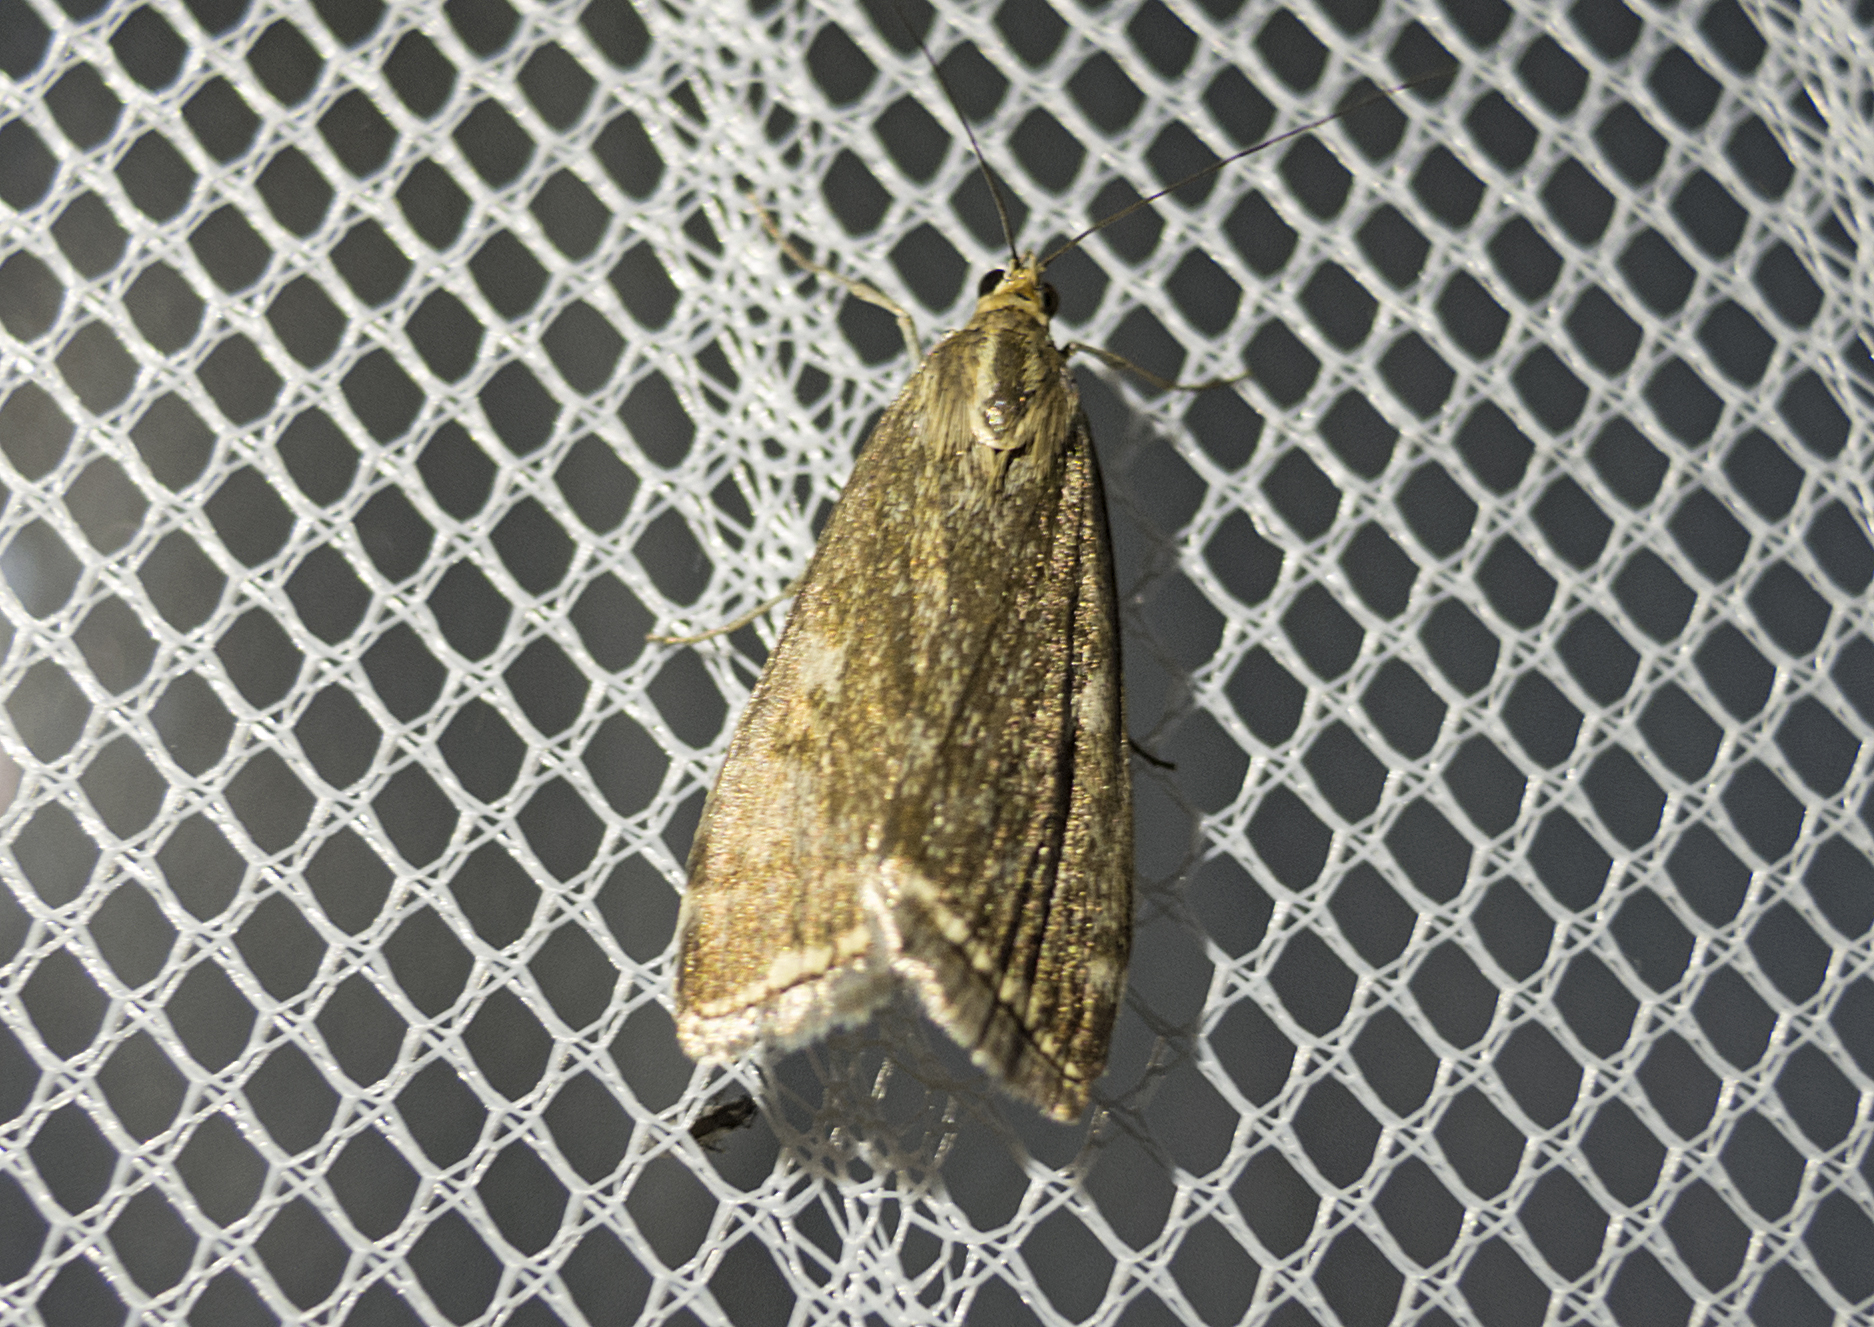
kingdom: Animalia
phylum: Arthropoda
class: Insecta
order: Lepidoptera
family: Crambidae
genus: Loxostege
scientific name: Loxostege sticticalis
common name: Crambid moth
